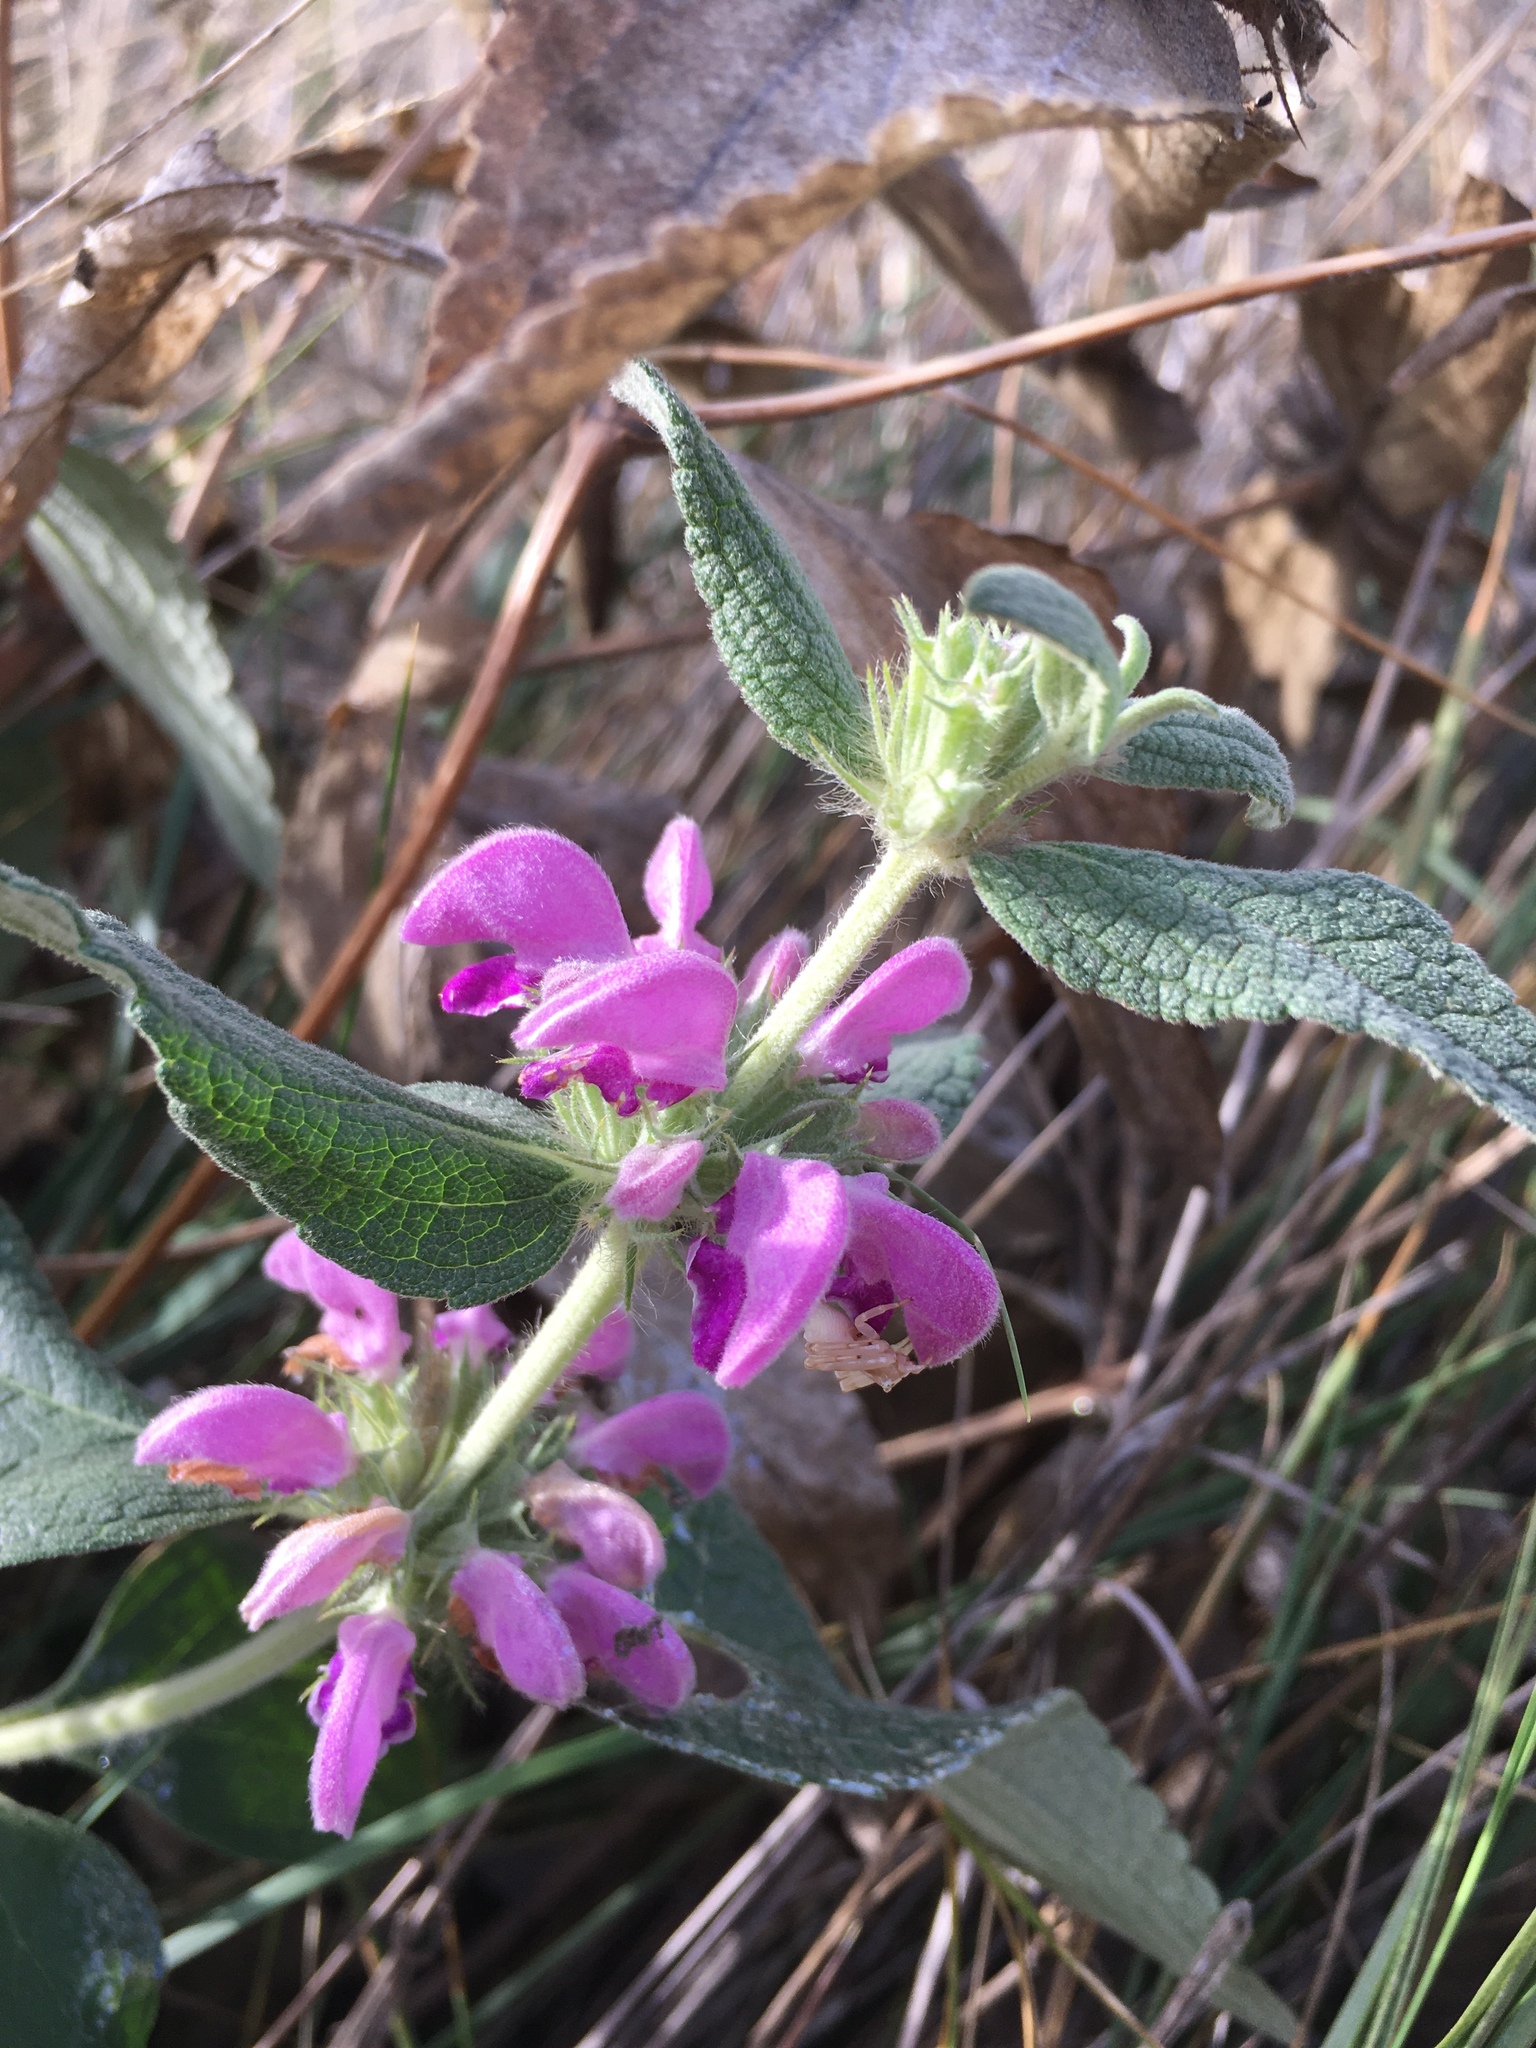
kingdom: Plantae
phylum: Tracheophyta
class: Magnoliopsida
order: Lamiales
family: Lamiaceae
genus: Phlomis
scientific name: Phlomis herba-venti
